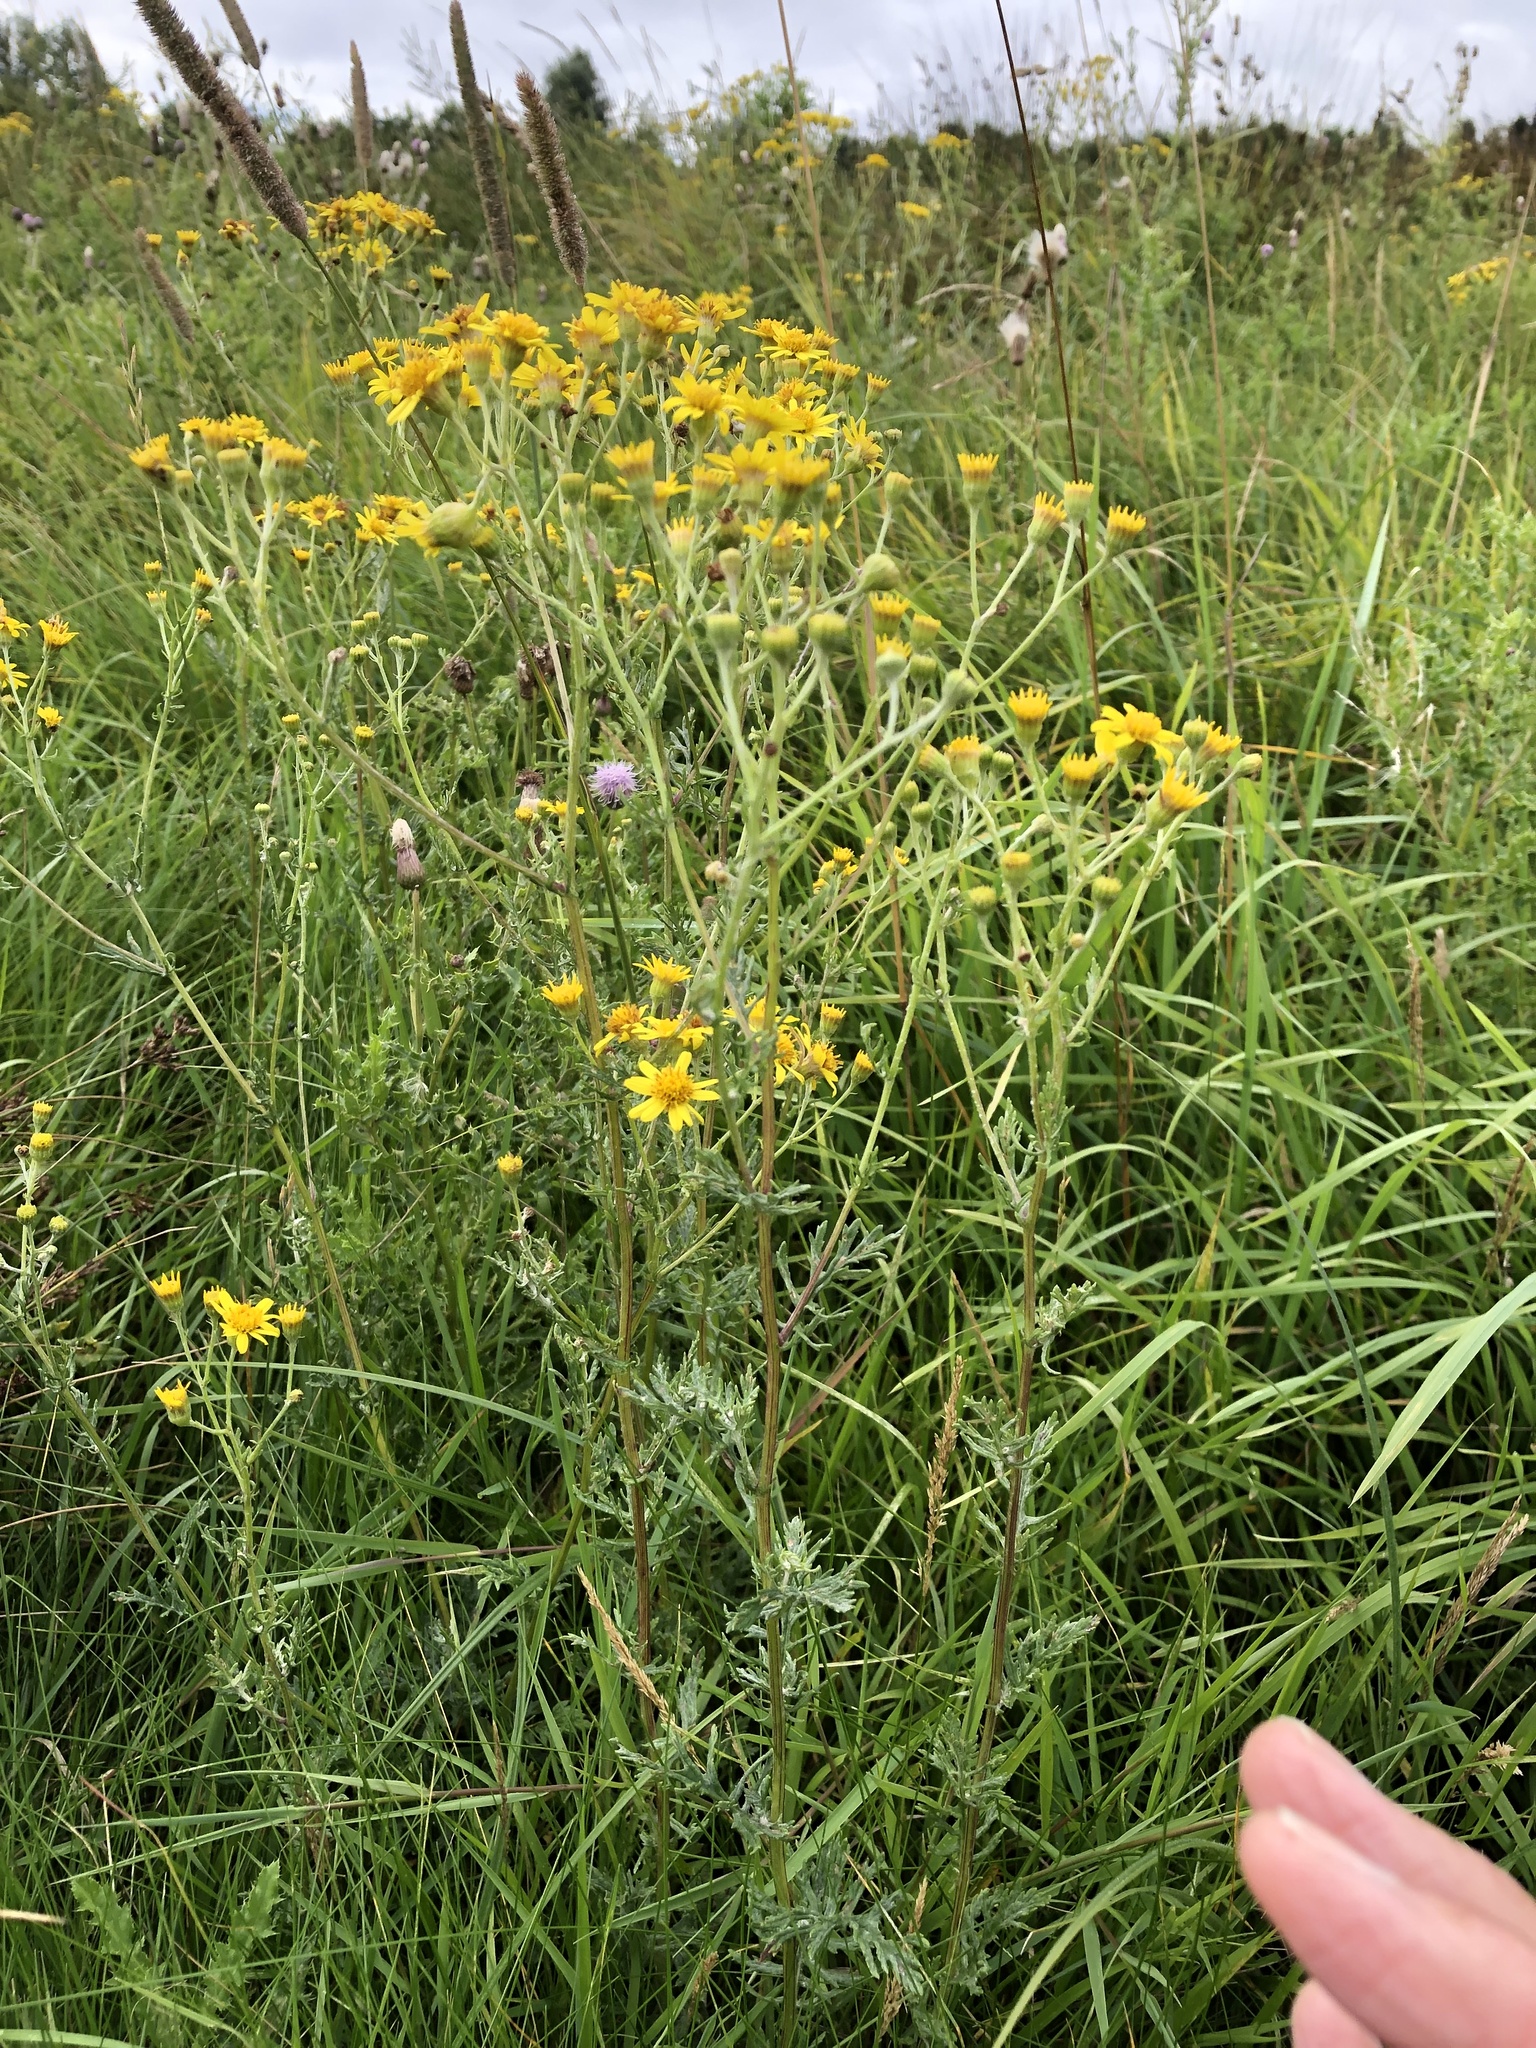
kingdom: Plantae
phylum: Tracheophyta
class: Magnoliopsida
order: Asterales
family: Asteraceae
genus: Jacobaea
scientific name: Jacobaea erucifolia
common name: Hoary ragwort
